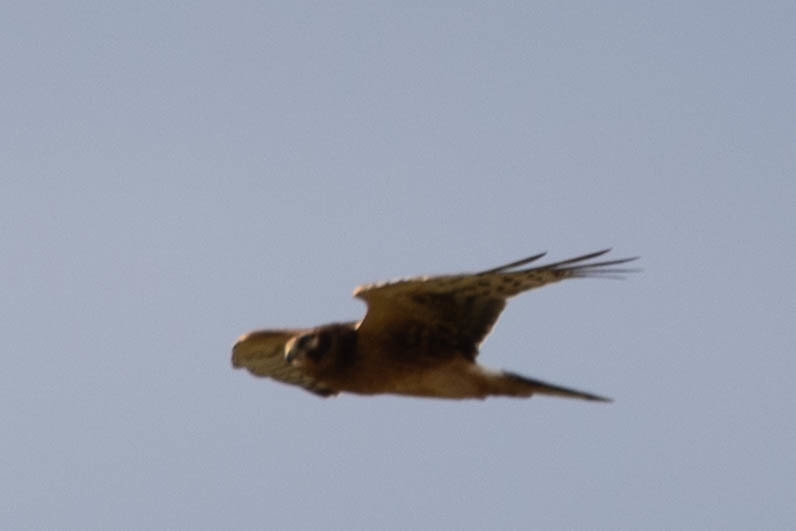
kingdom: Animalia
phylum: Chordata
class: Aves
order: Accipitriformes
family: Accipitridae
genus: Circus
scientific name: Circus cyaneus
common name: Hen harrier
